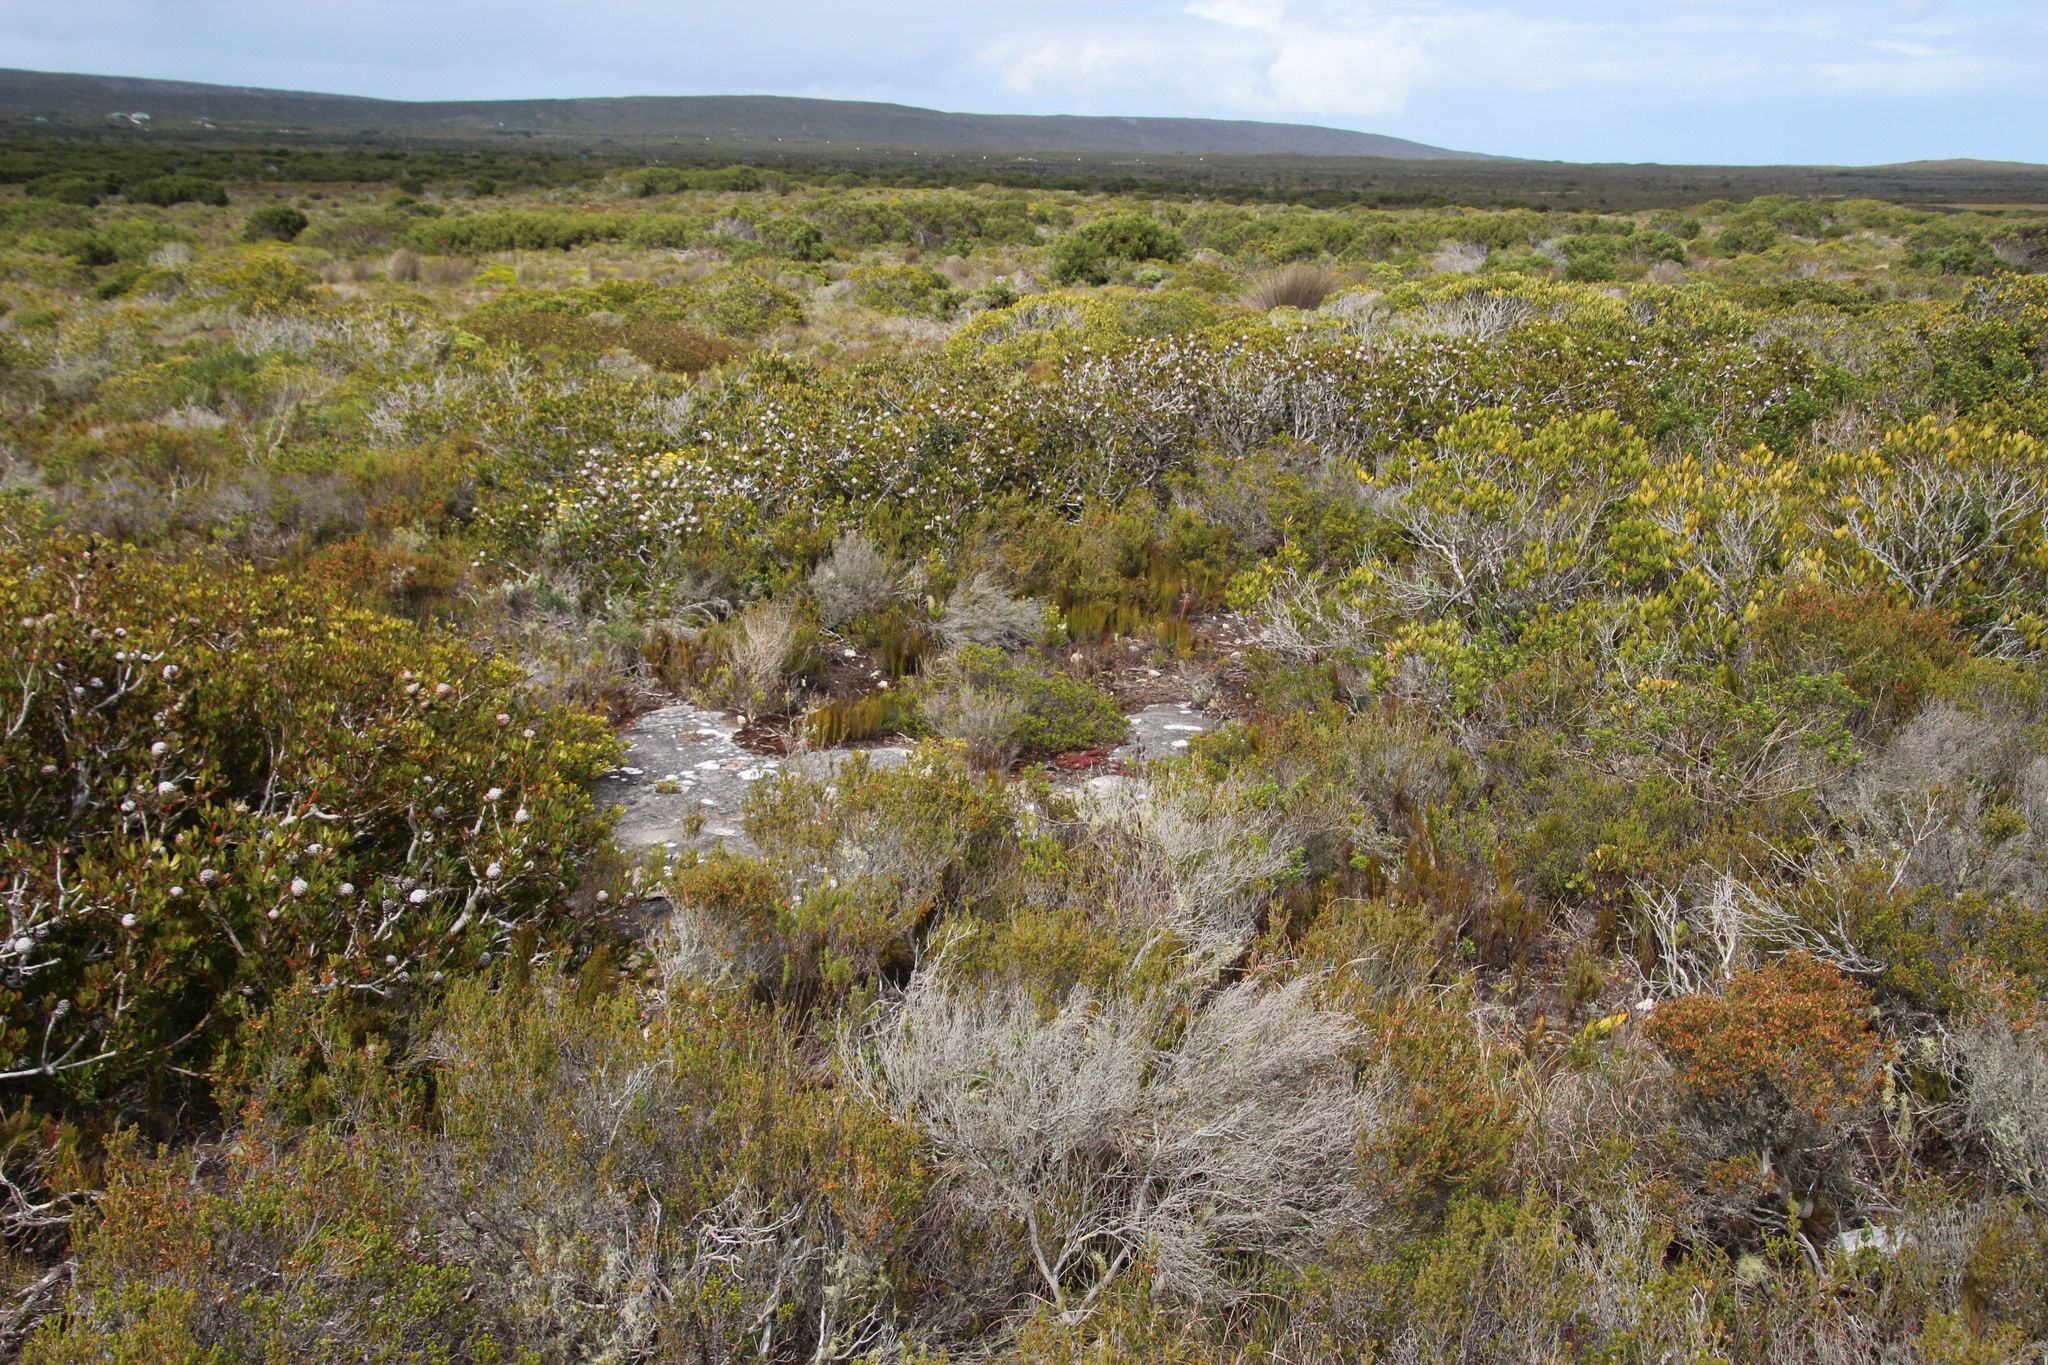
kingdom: Plantae
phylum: Tracheophyta
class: Magnoliopsida
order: Proteales
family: Proteaceae
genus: Leucadendron
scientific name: Leucadendron muirii
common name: Silver-ball conebush
